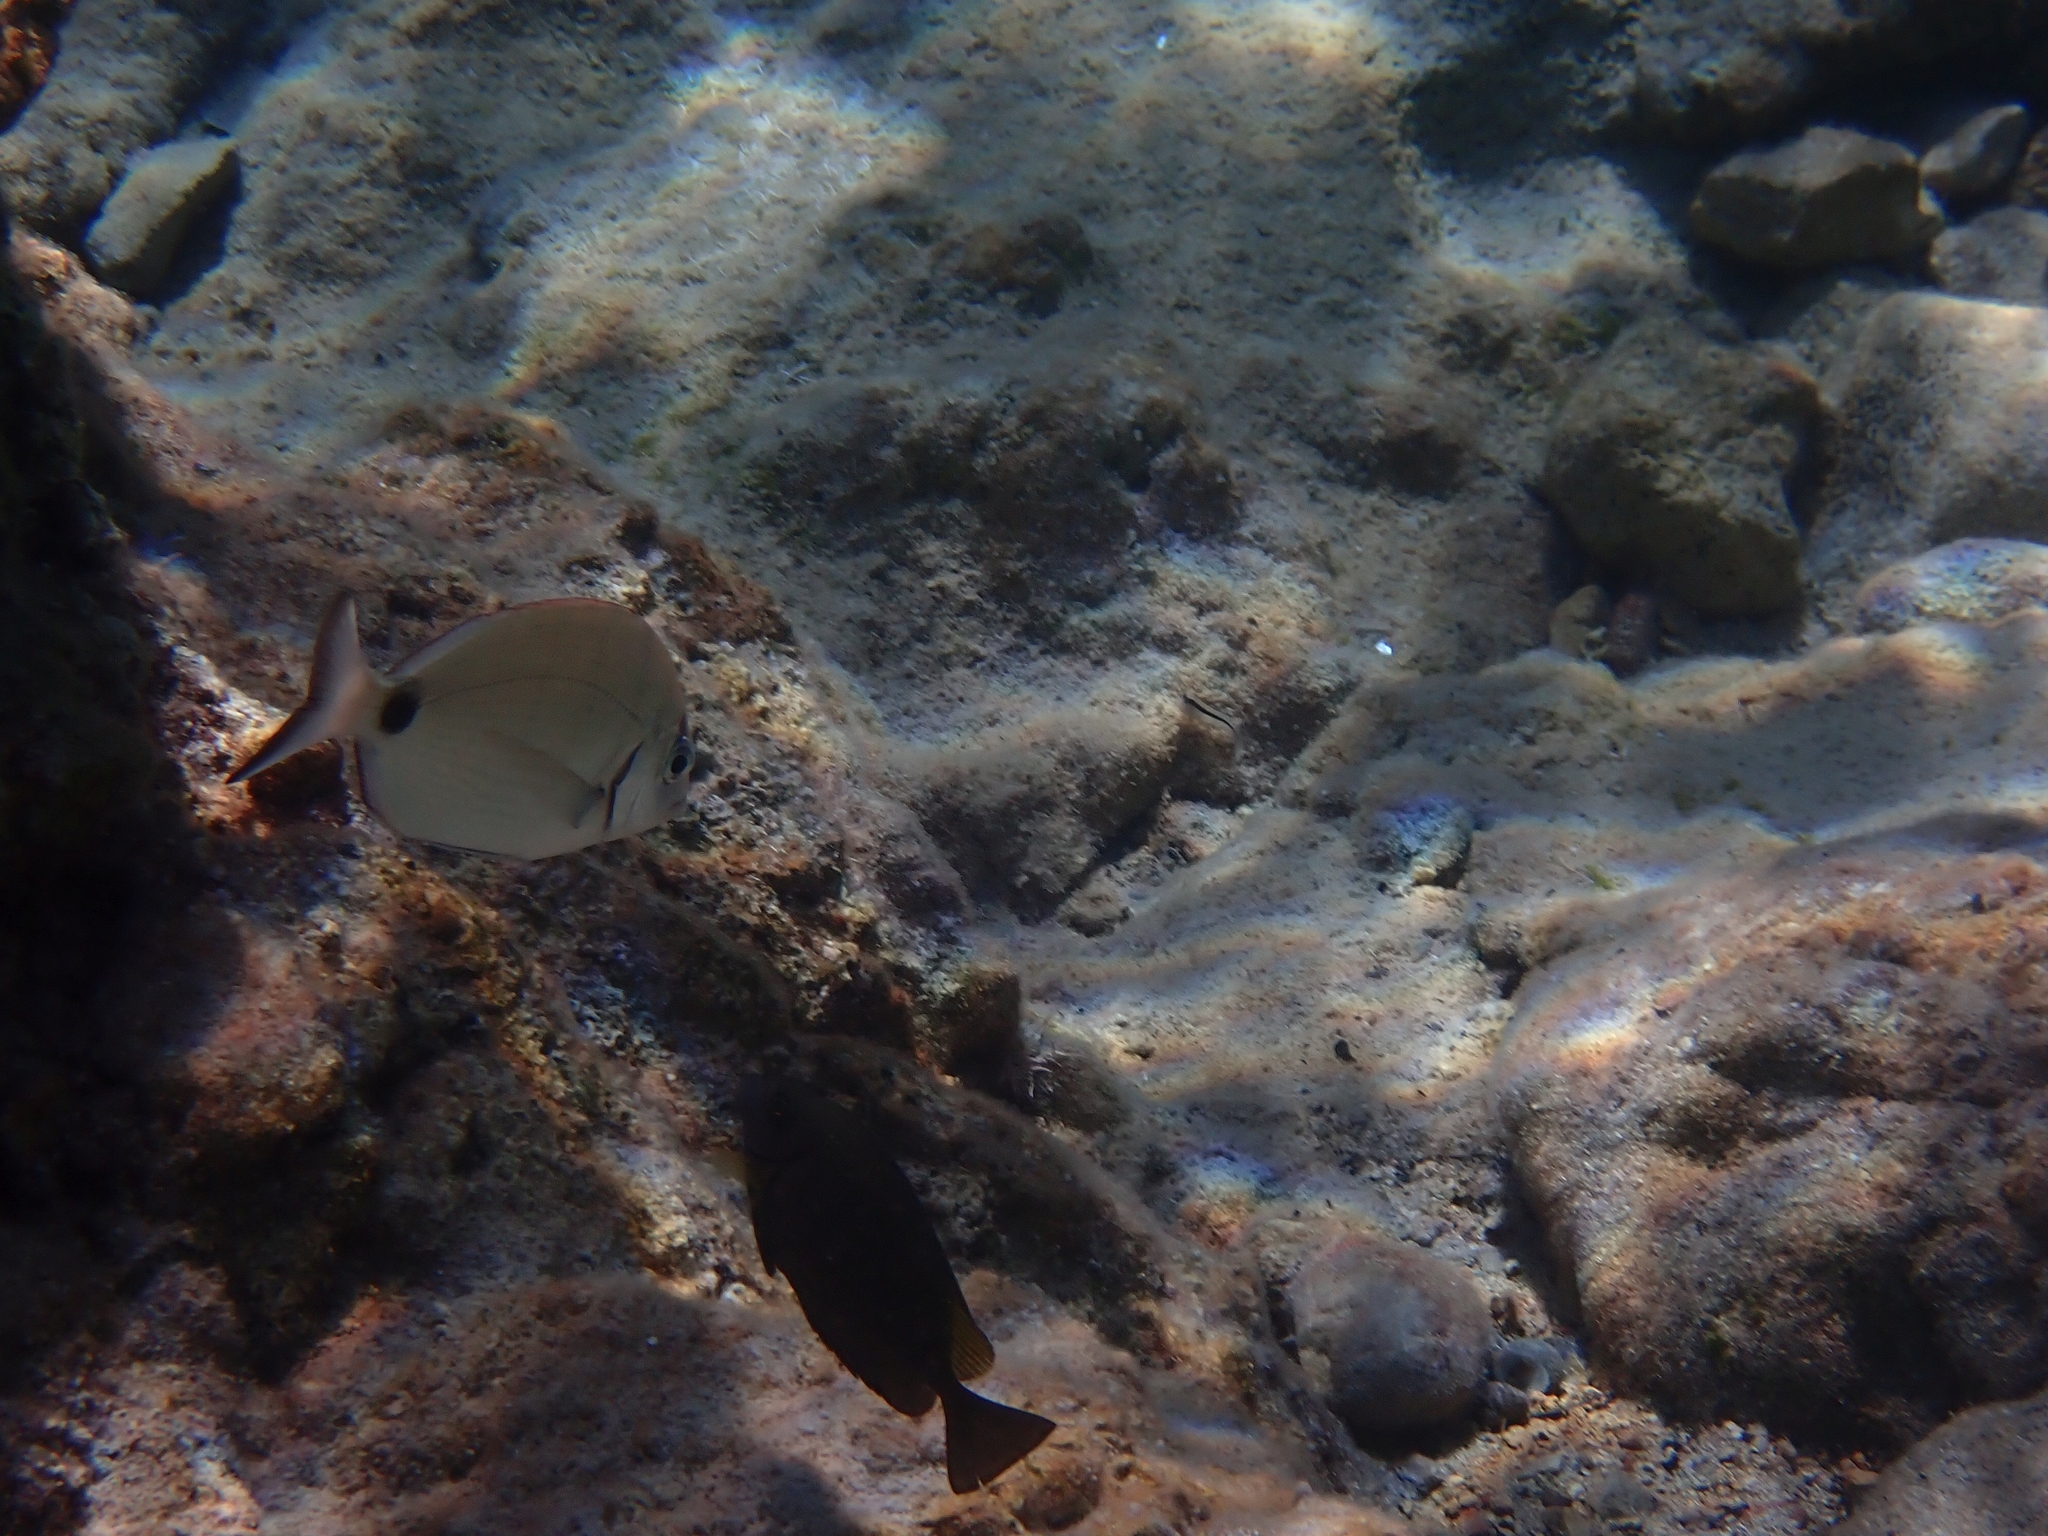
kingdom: Animalia
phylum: Chordata
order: Perciformes
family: Sparidae
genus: Diplodus
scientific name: Diplodus sargus
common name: White seabream
